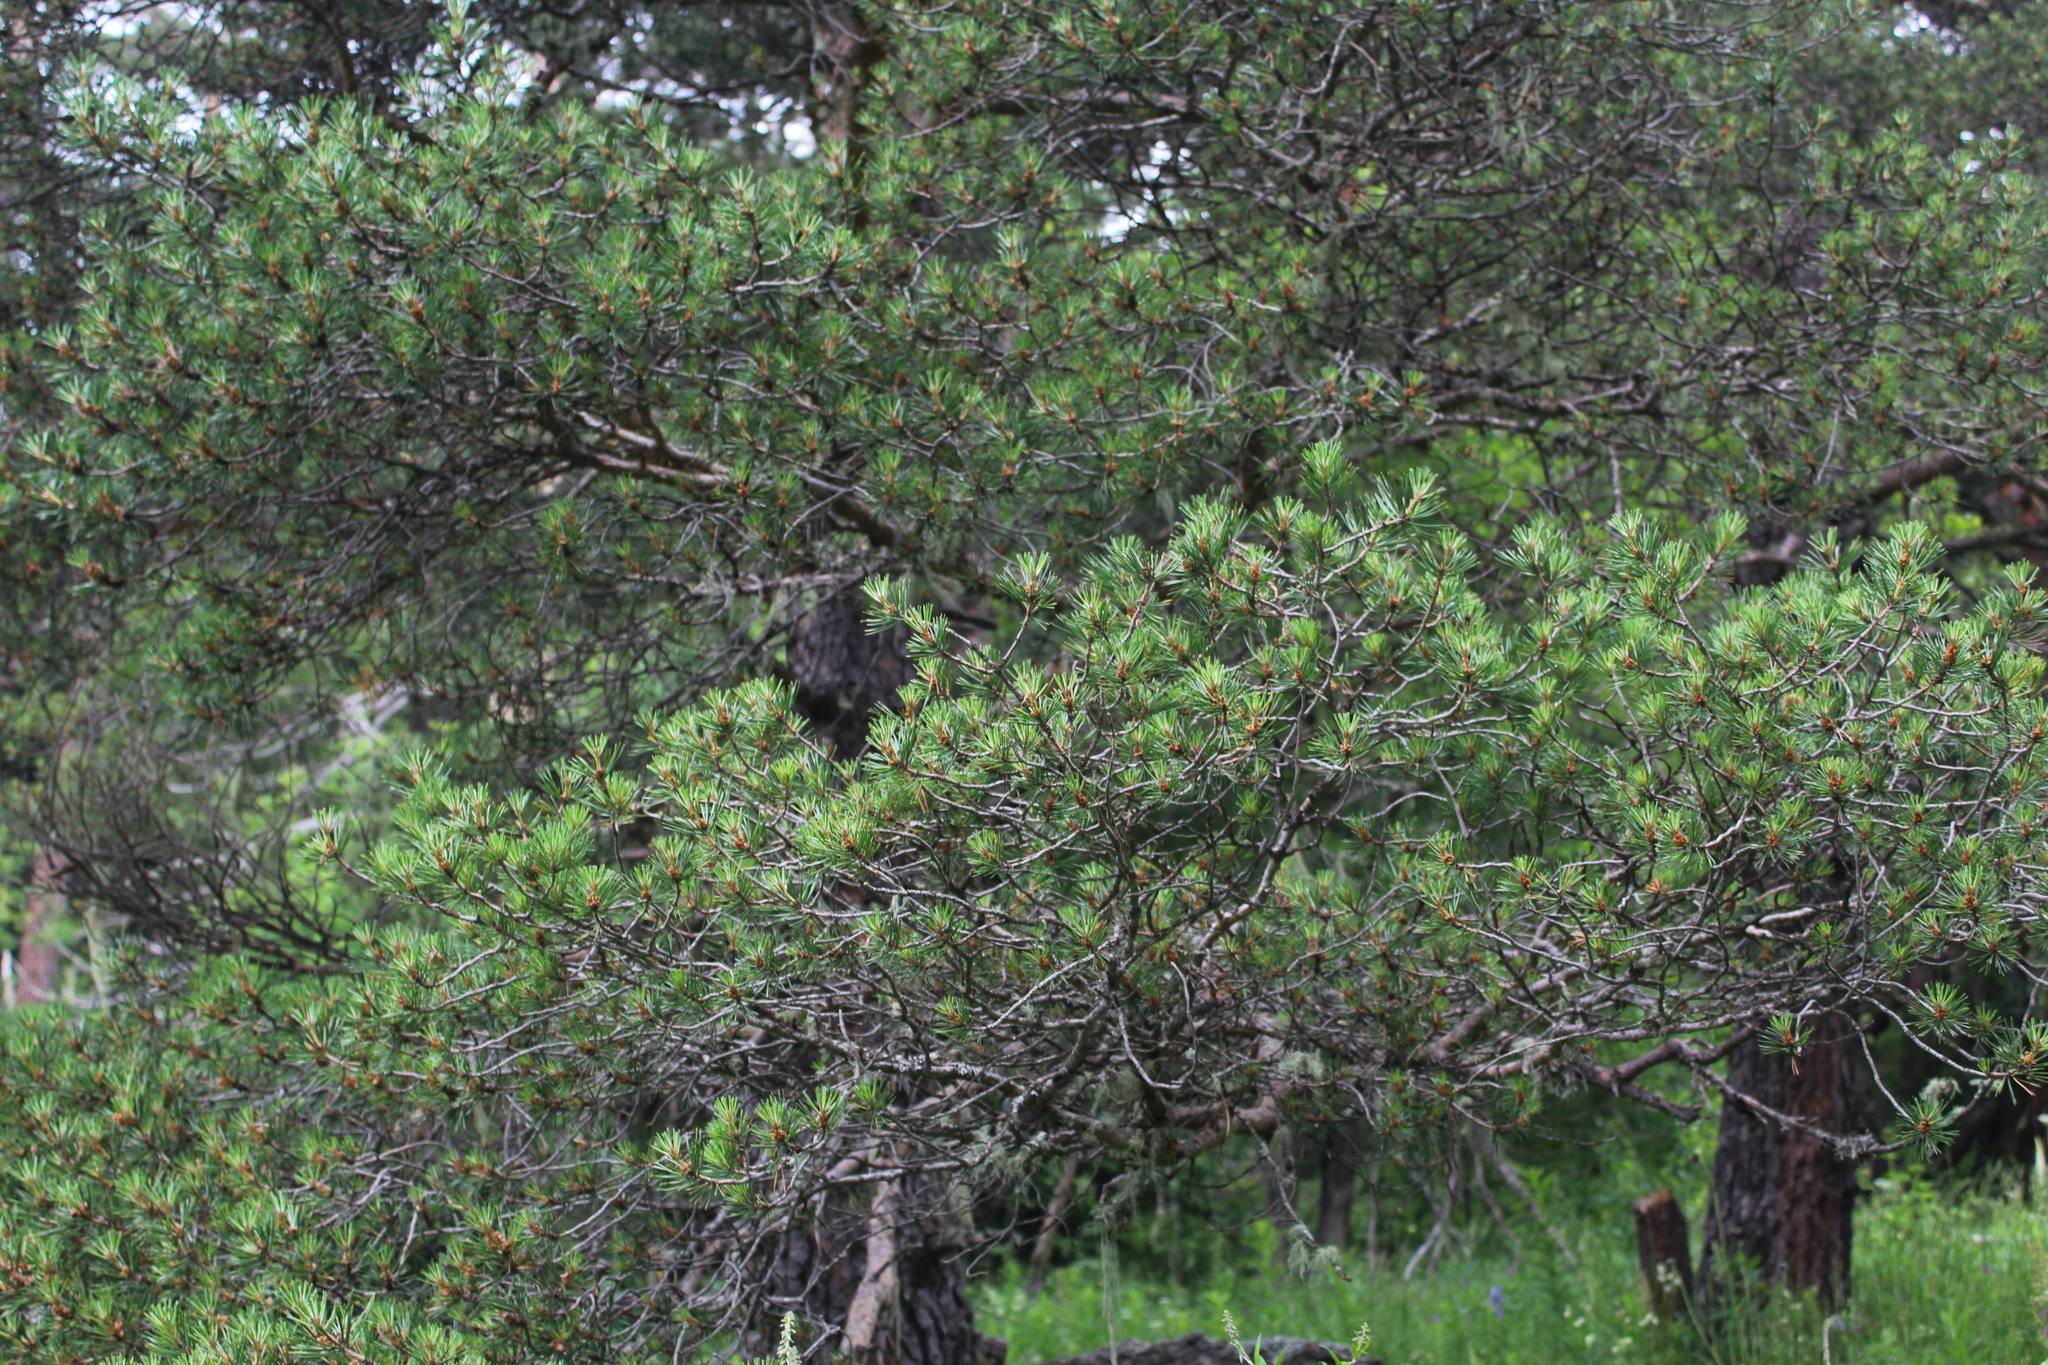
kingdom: Plantae
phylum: Tracheophyta
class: Pinopsida
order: Pinales
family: Pinaceae
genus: Pinus
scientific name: Pinus sylvestris
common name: Scots pine
